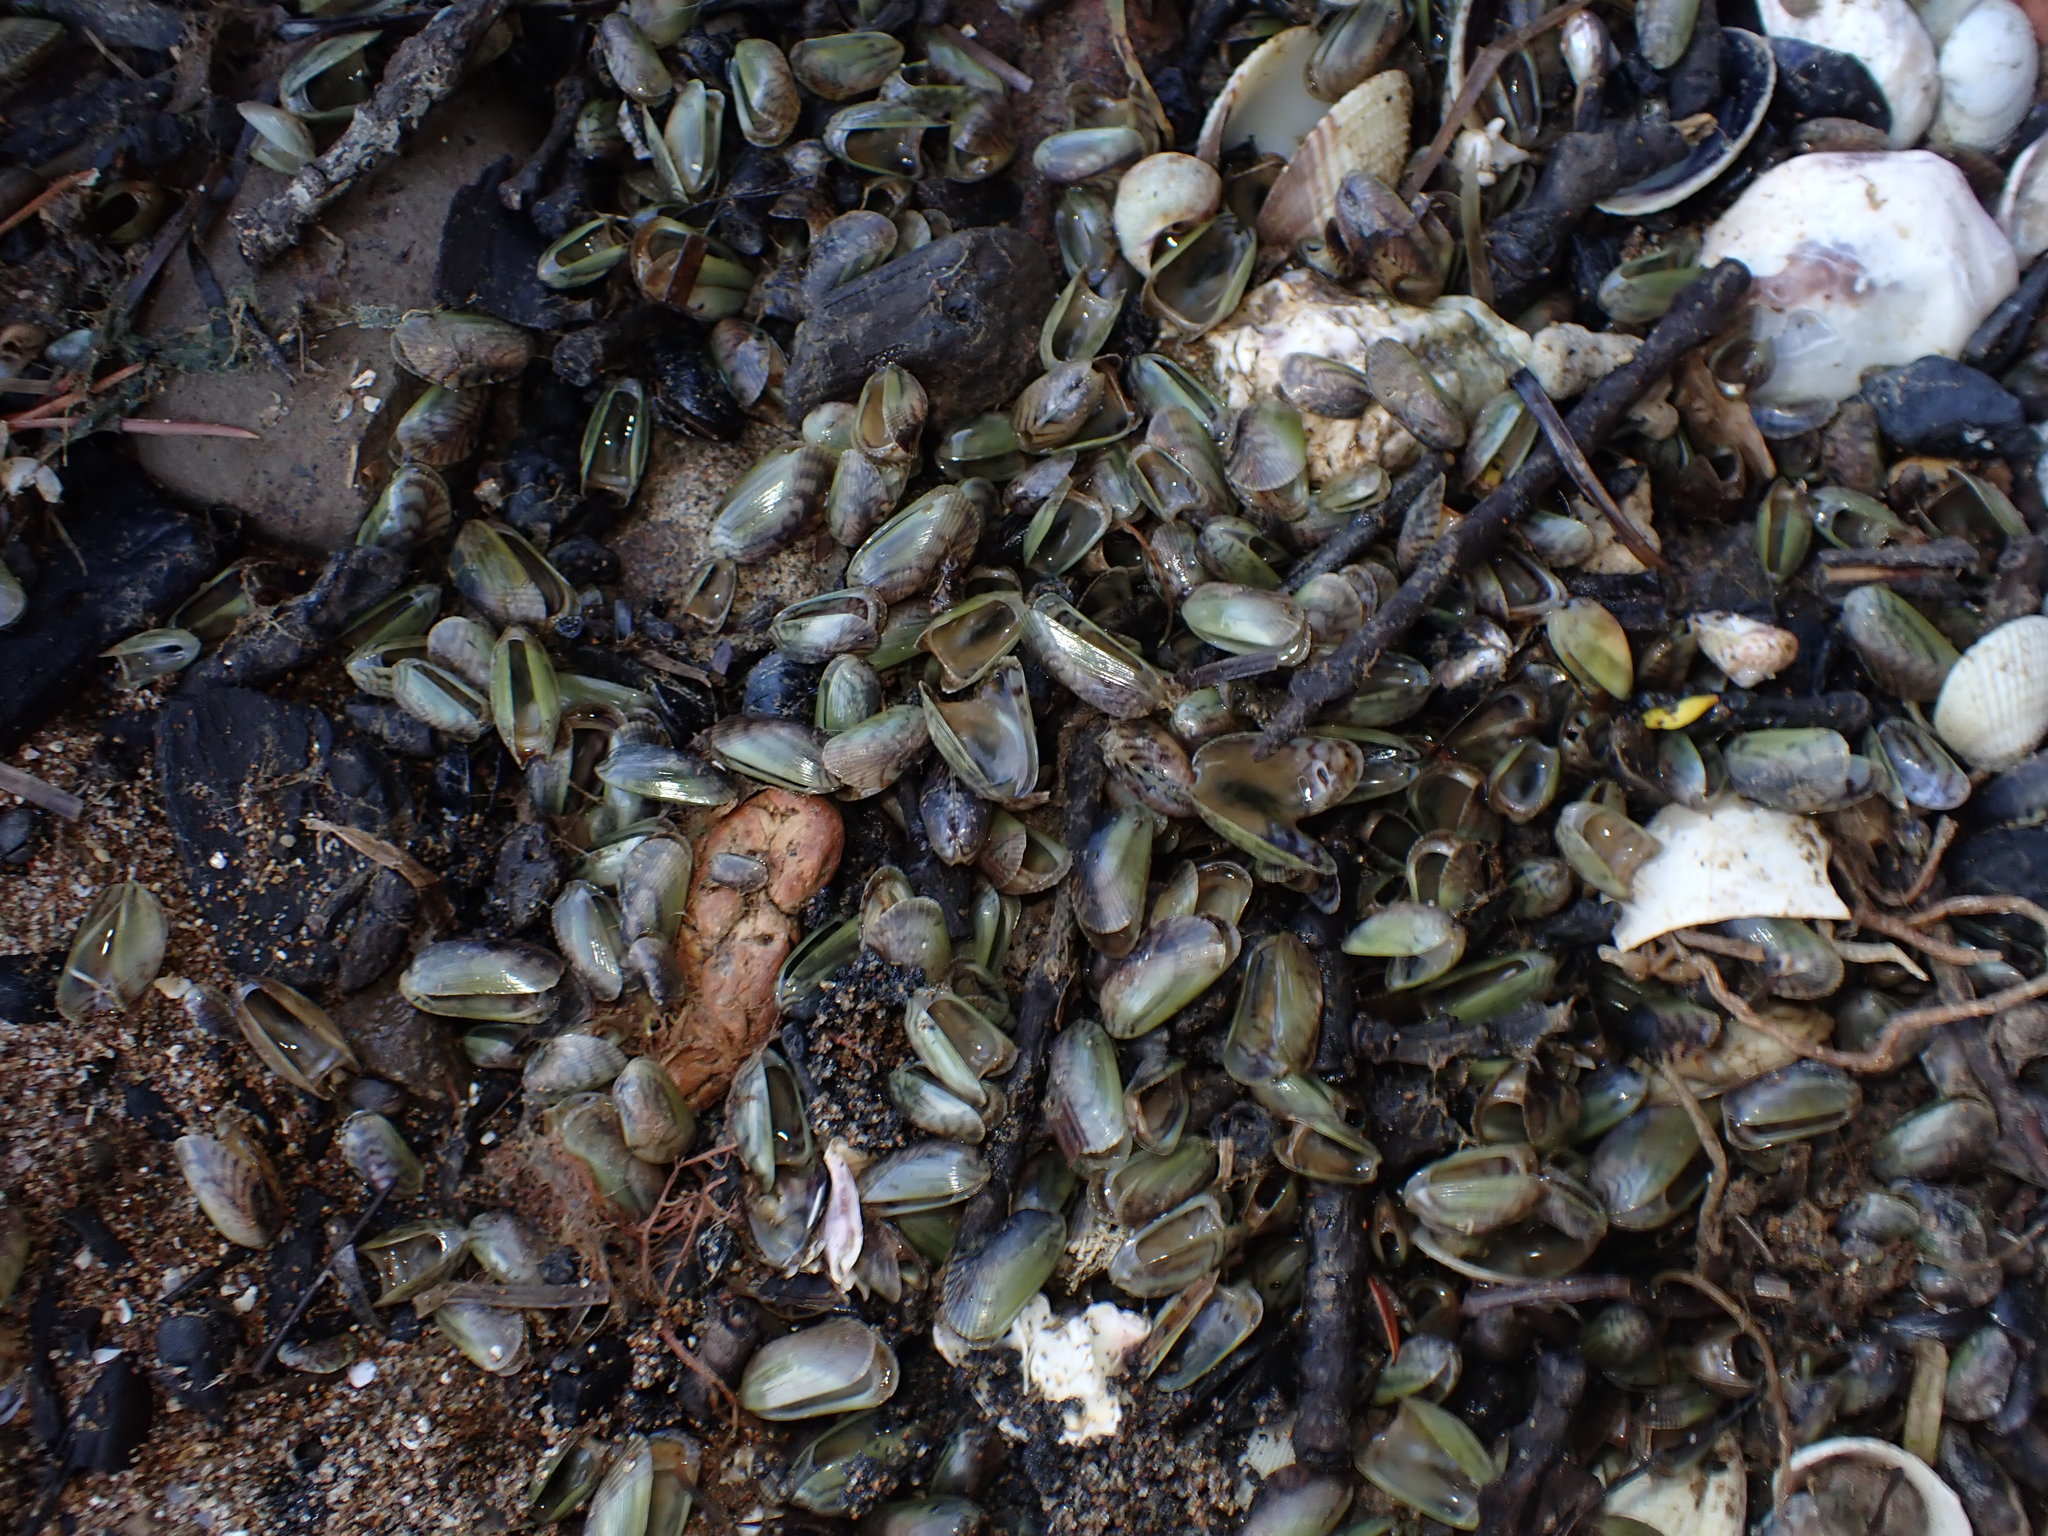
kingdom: Animalia
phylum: Mollusca
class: Bivalvia
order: Mytilida
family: Mytilidae
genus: Arcuatula
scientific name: Arcuatula senhousia
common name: Asian mussel
